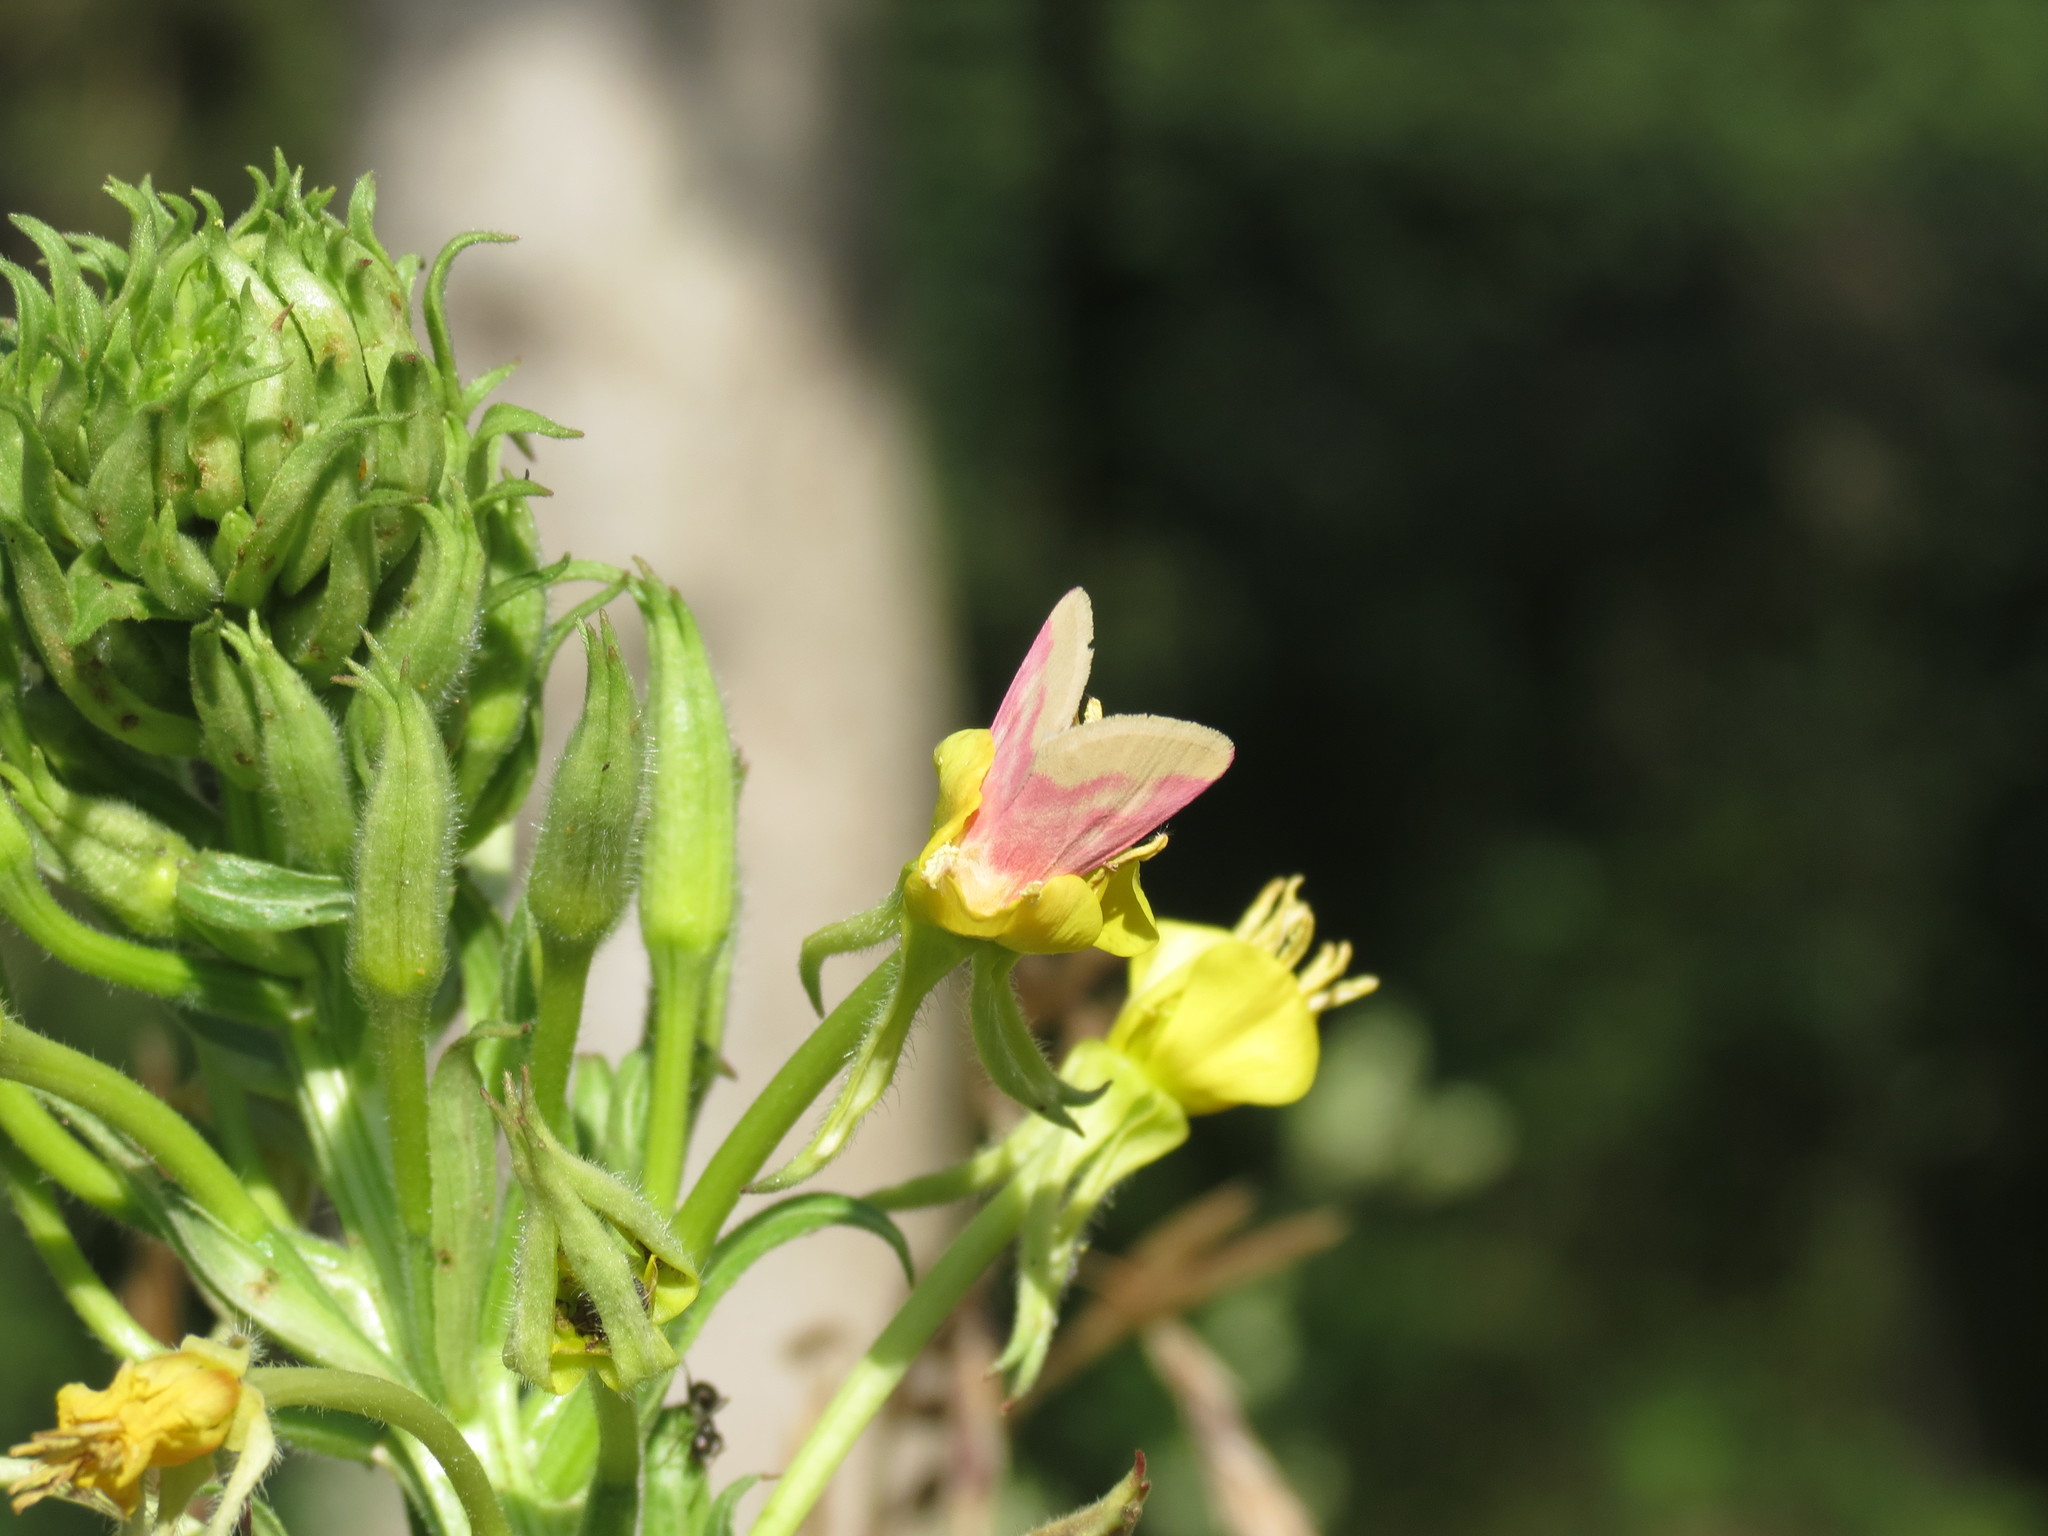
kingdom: Animalia
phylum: Arthropoda
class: Insecta
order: Lepidoptera
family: Noctuidae
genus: Schinia
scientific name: Schinia florida
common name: Primrose moth
